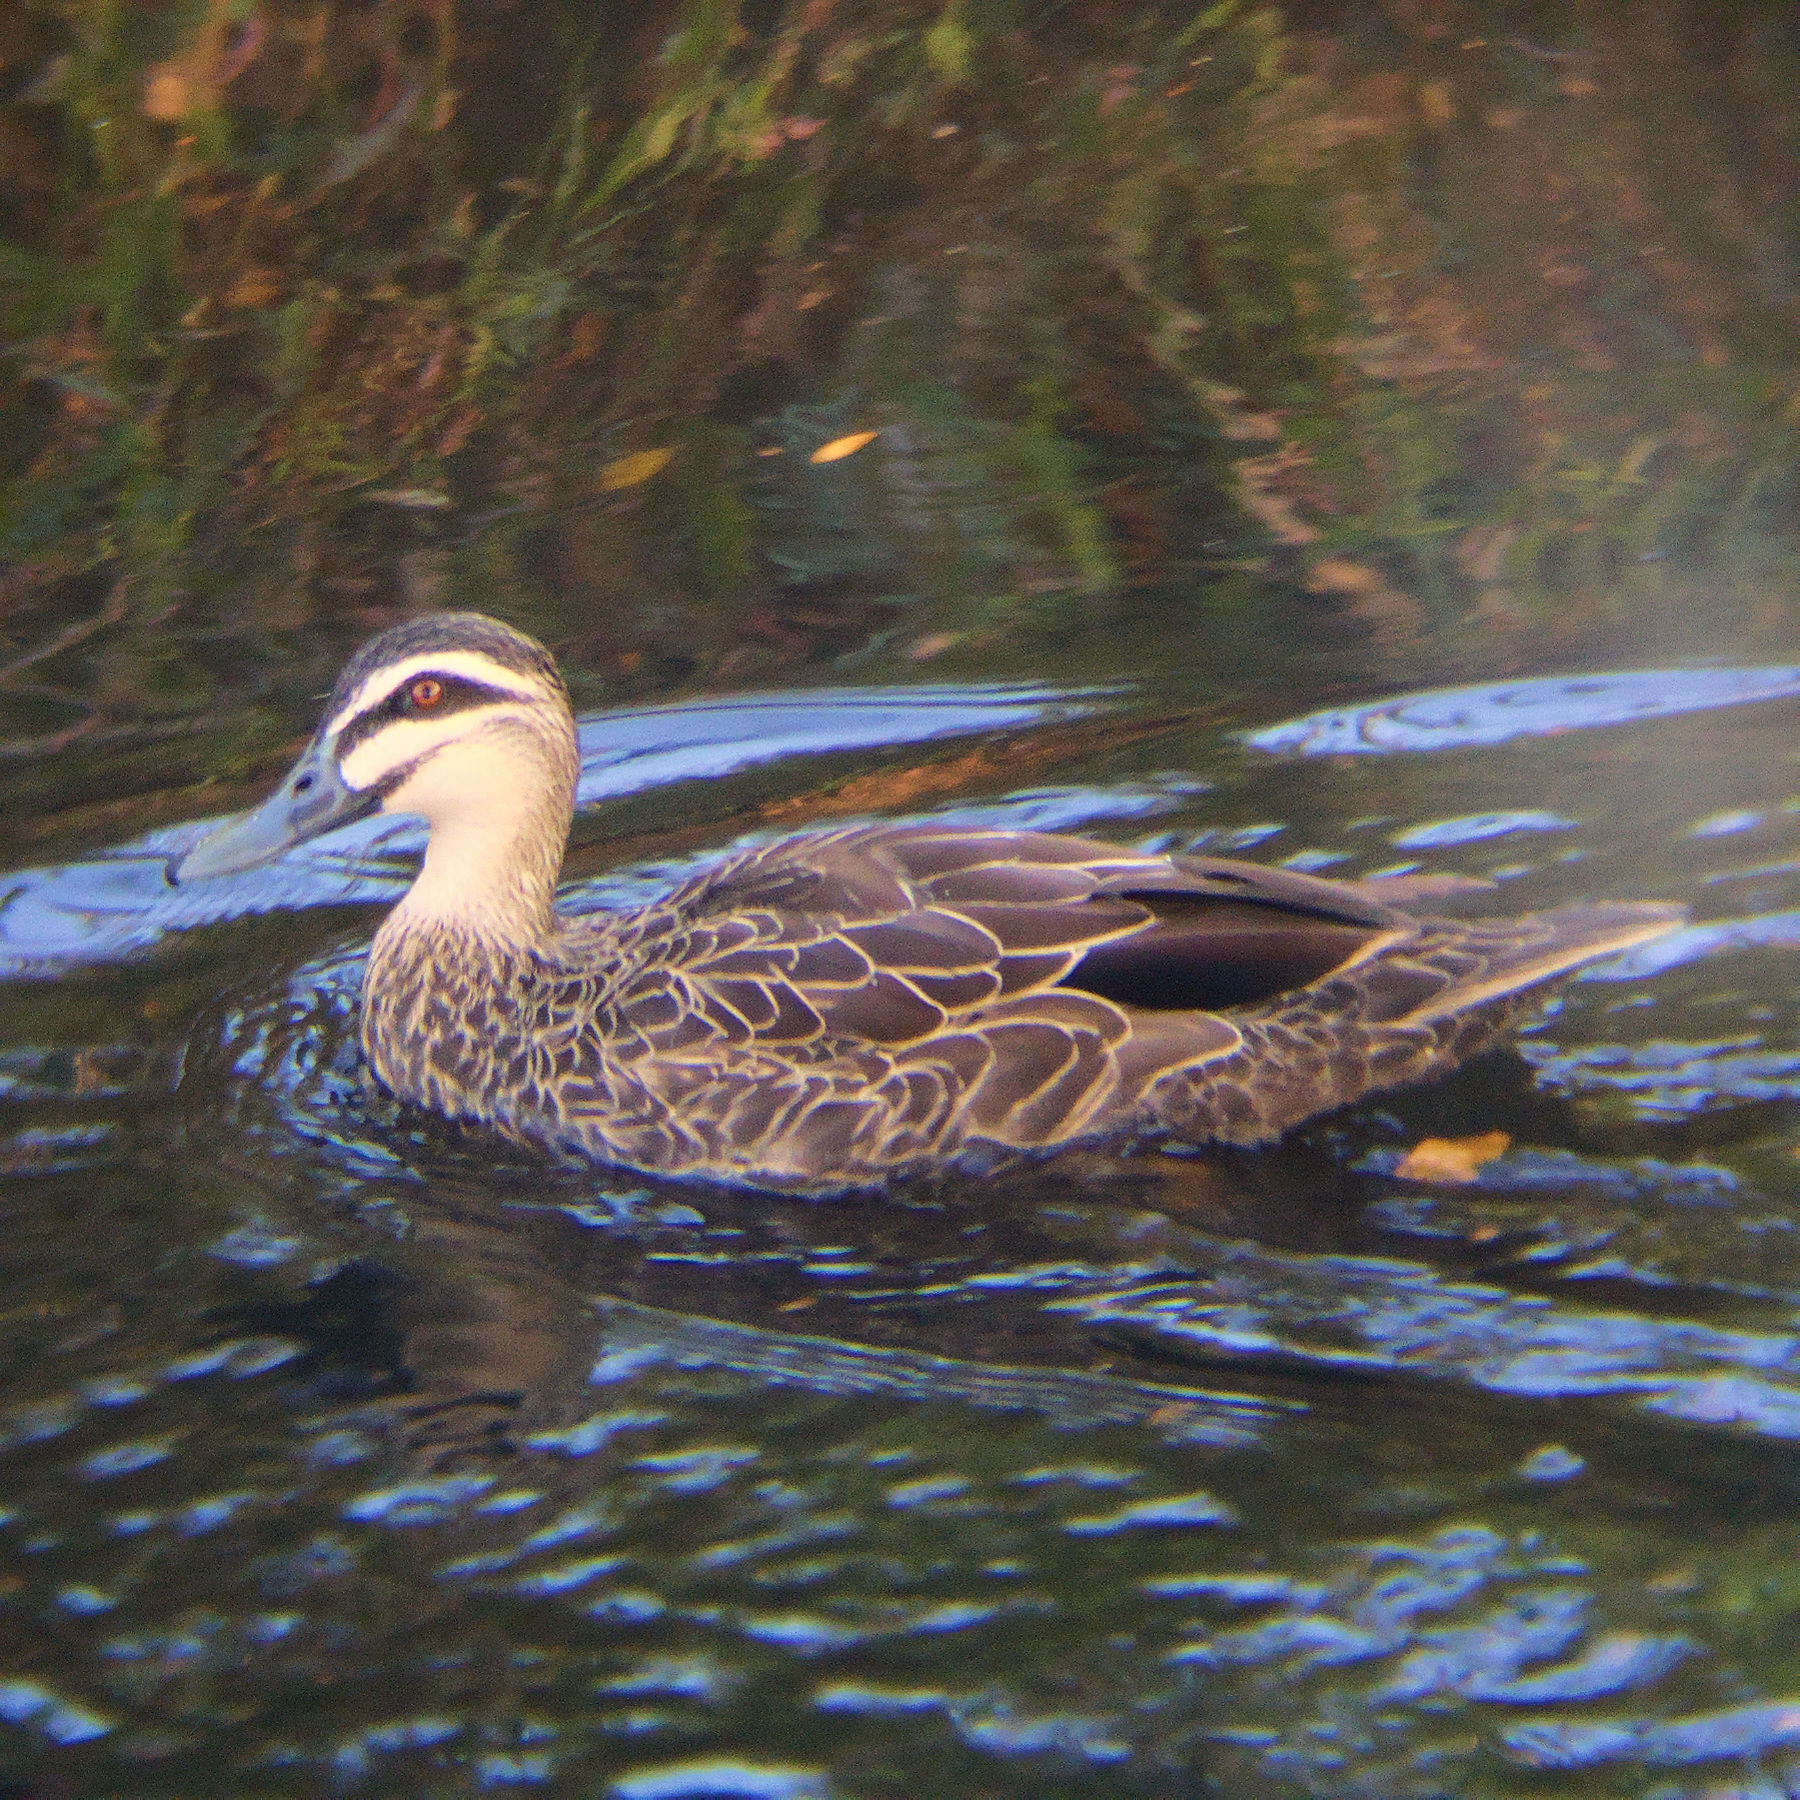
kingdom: Animalia
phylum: Chordata
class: Aves
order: Anseriformes
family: Anatidae
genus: Anas
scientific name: Anas superciliosa
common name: Pacific black duck
